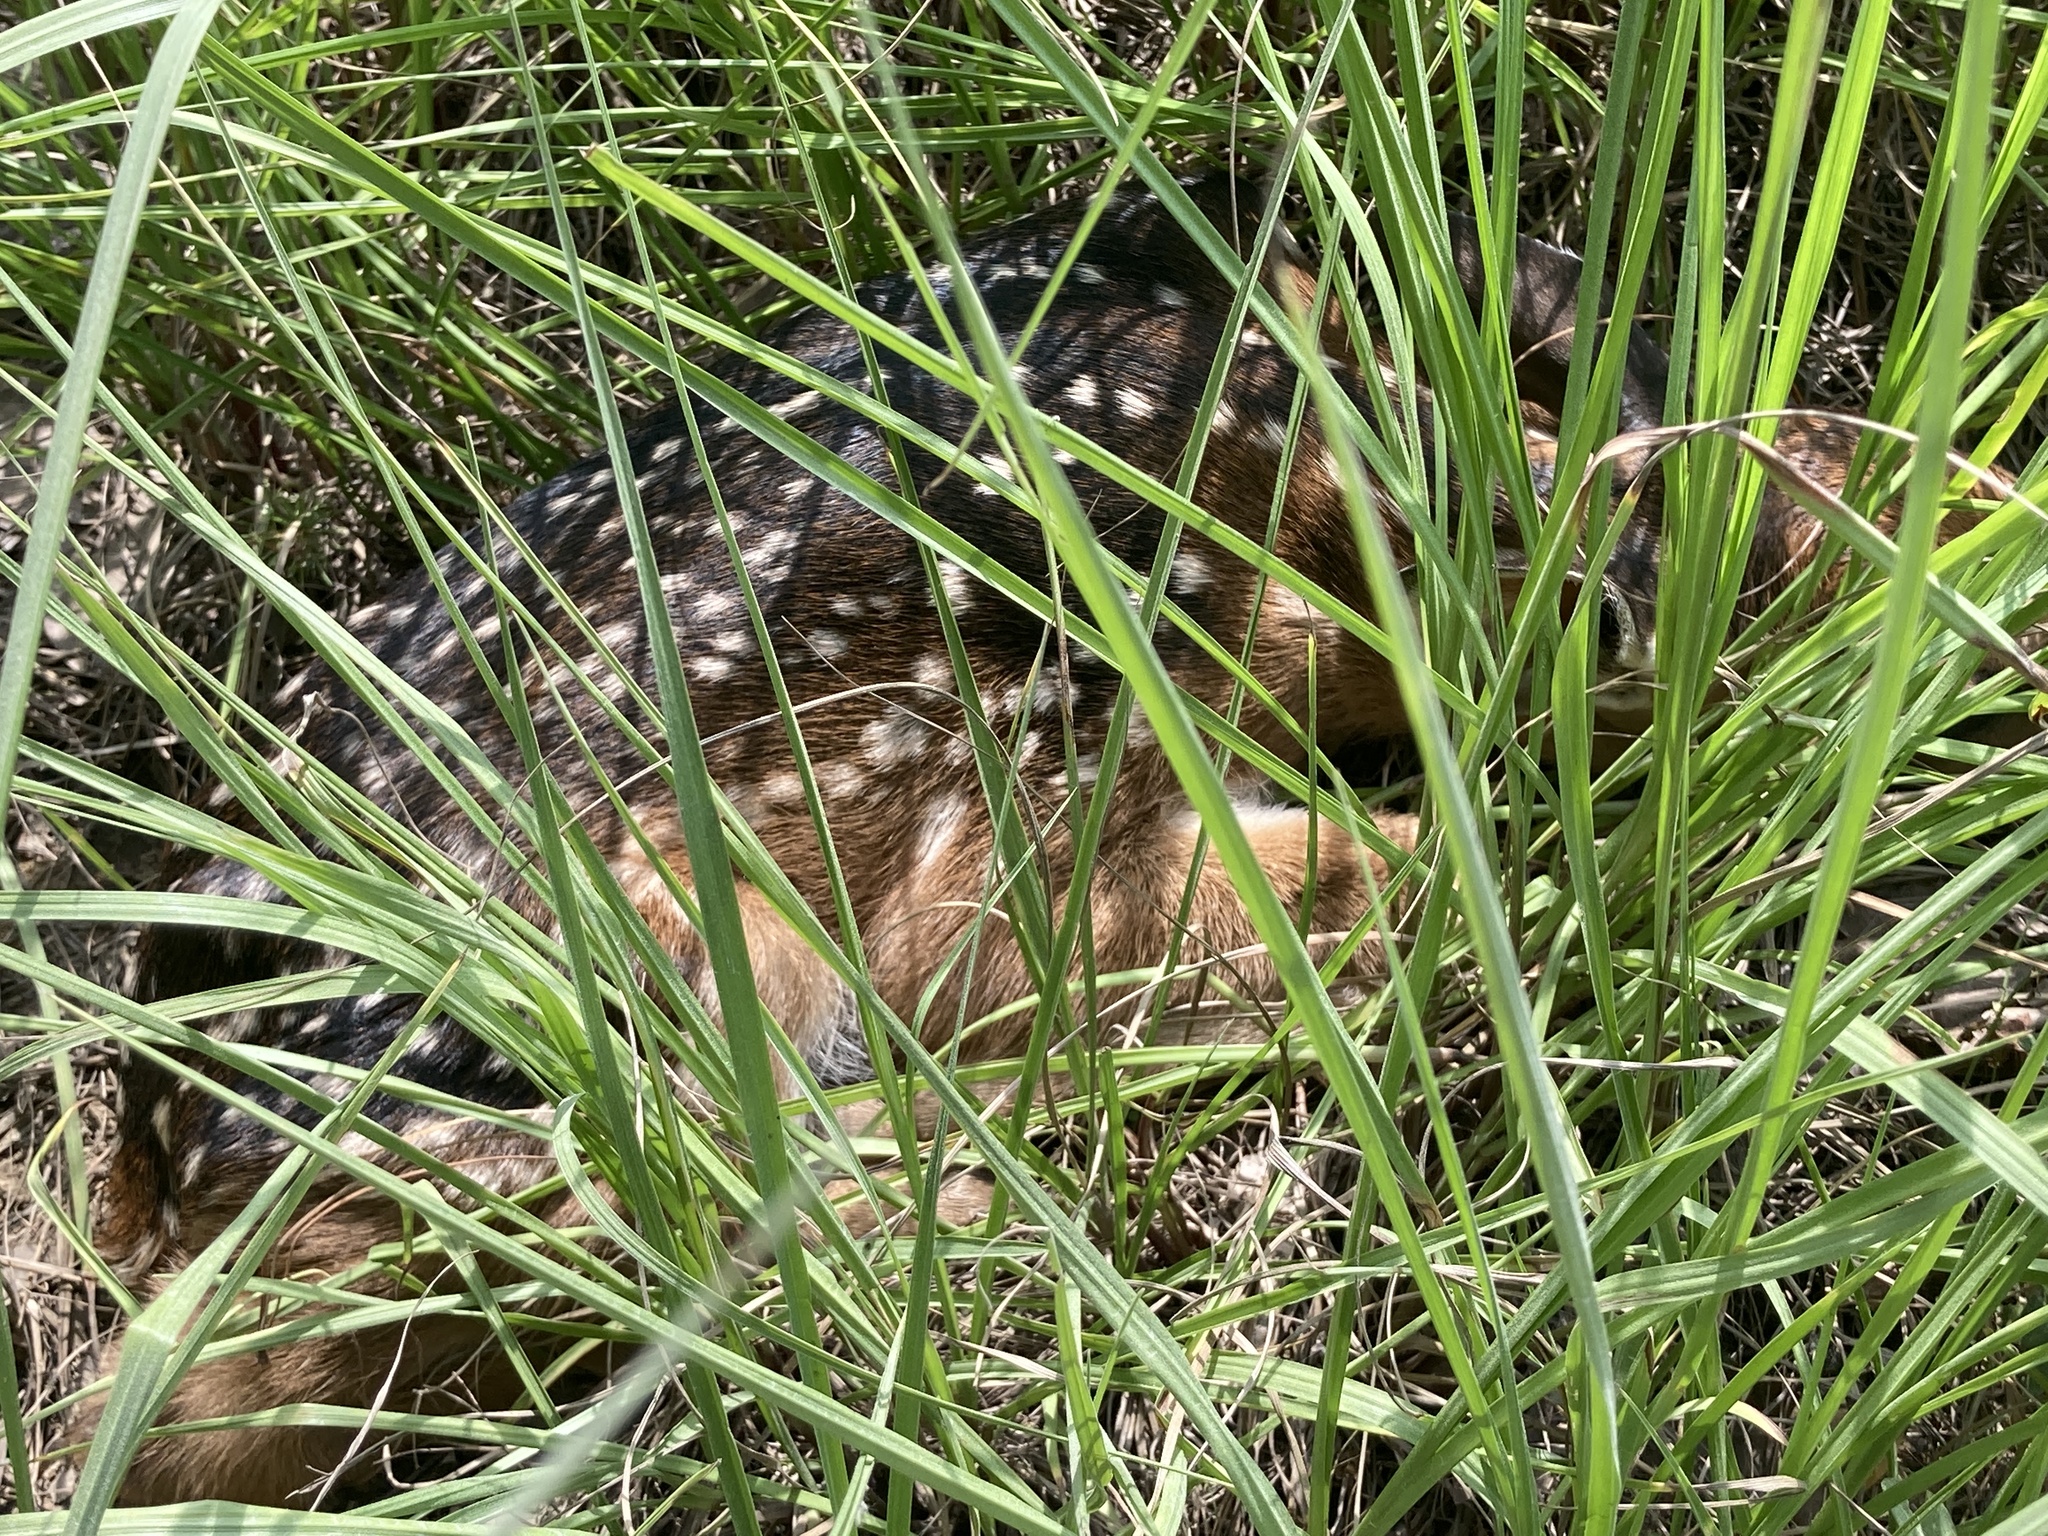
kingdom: Animalia
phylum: Chordata
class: Mammalia
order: Artiodactyla
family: Cervidae
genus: Odocoileus
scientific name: Odocoileus virginianus
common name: White-tailed deer
